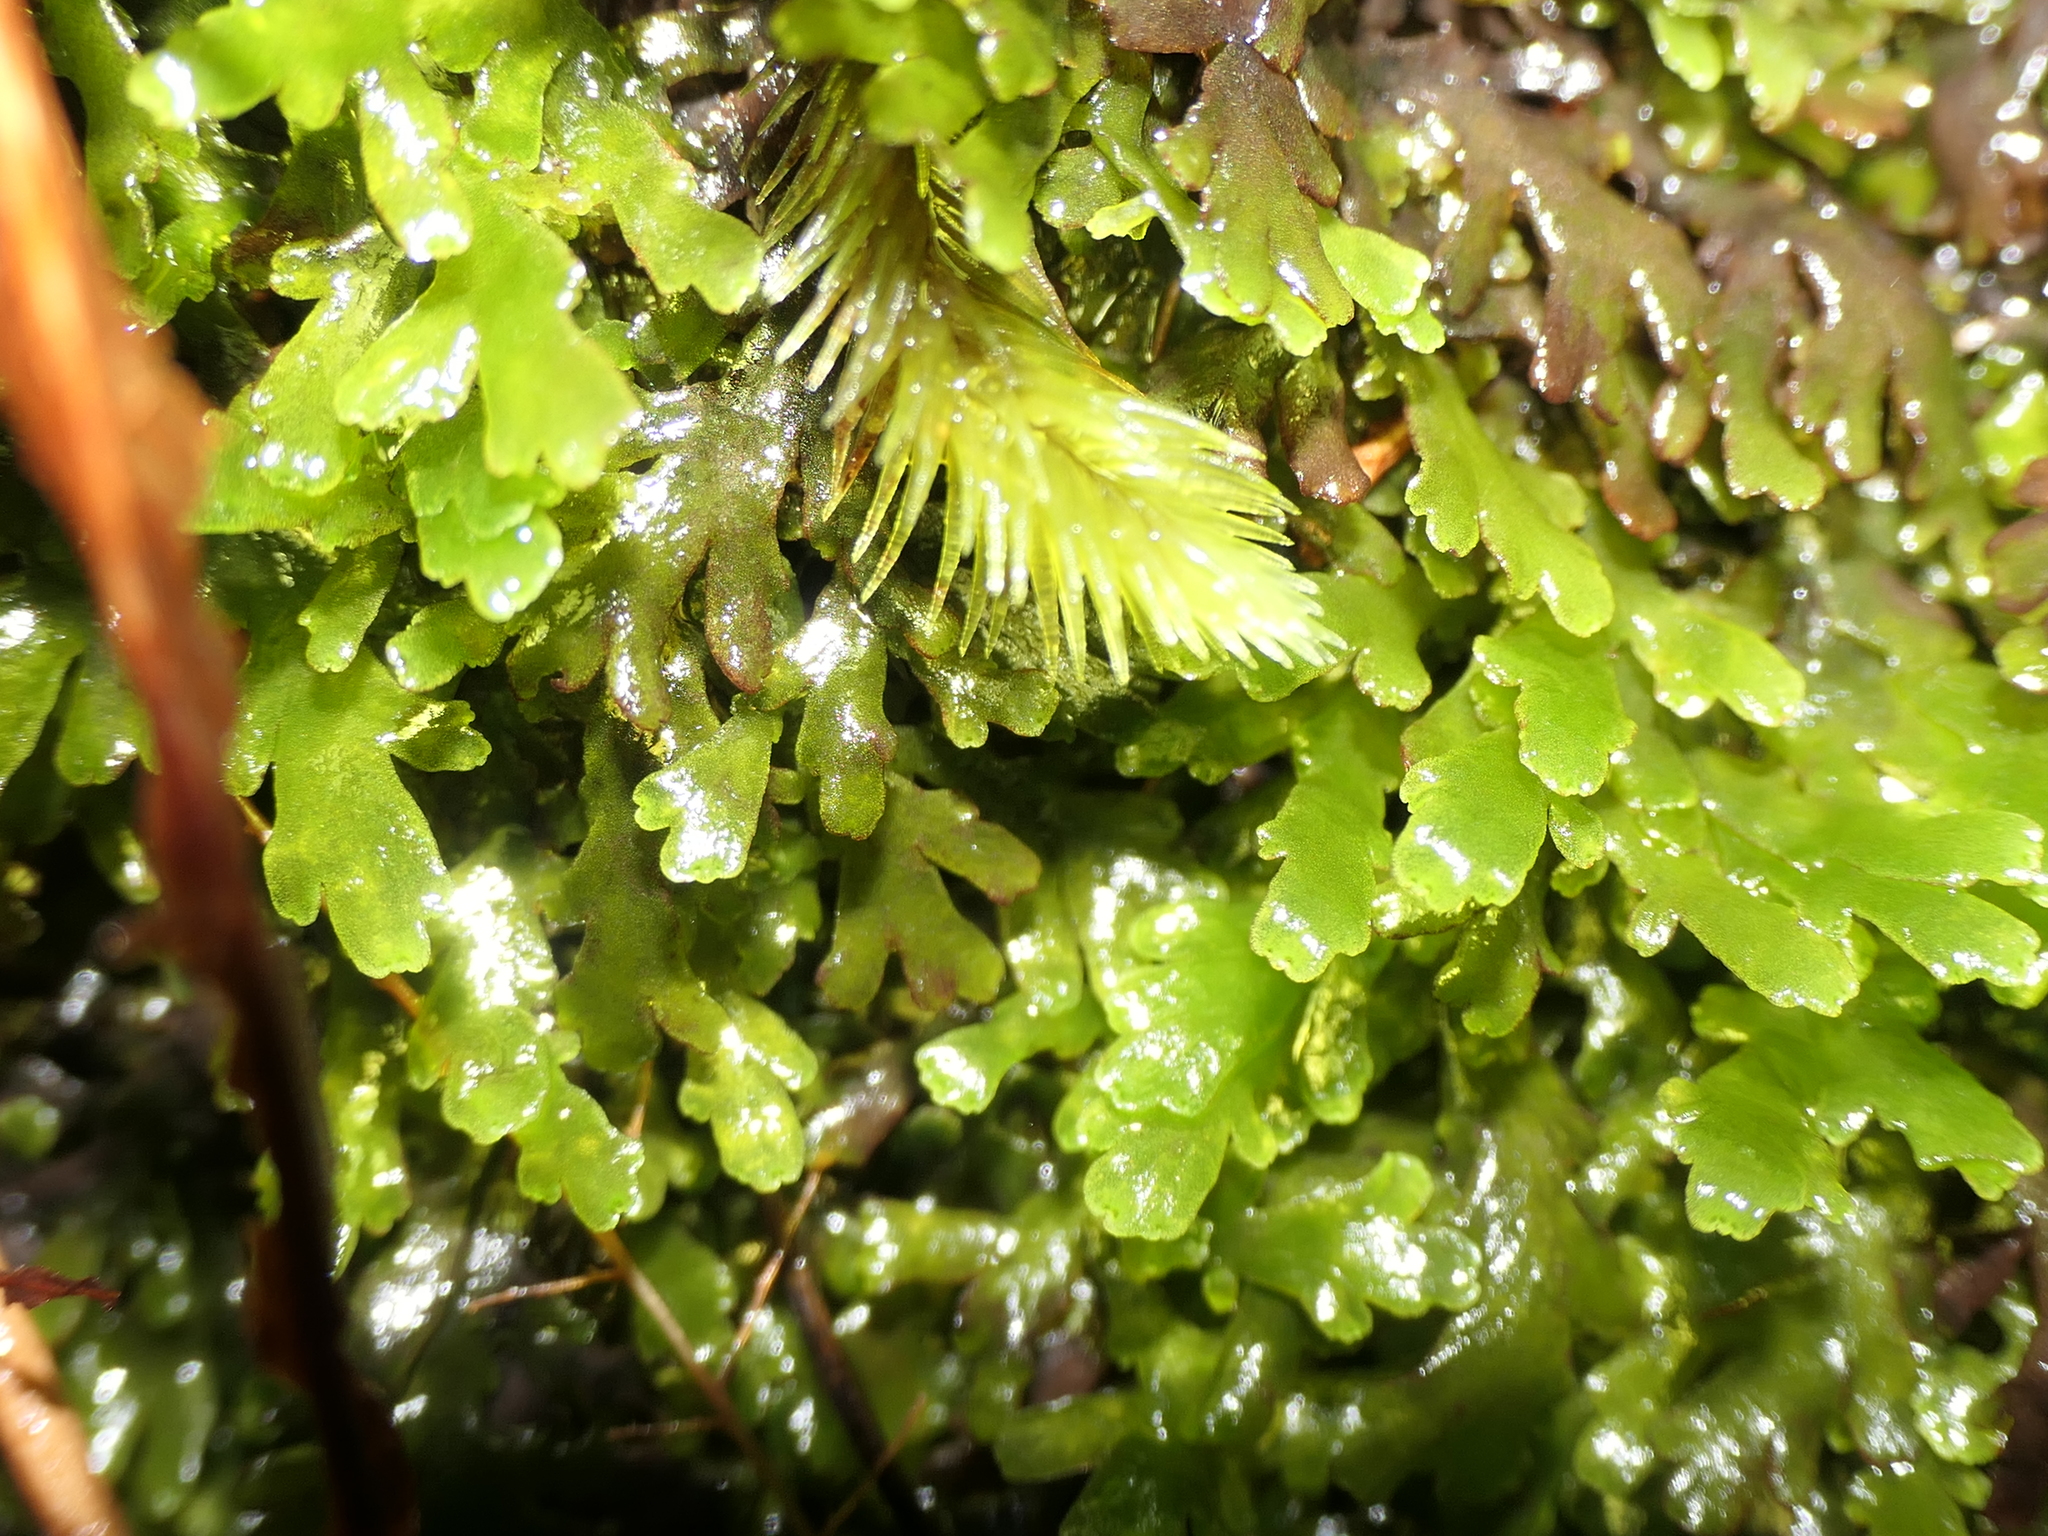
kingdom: Plantae
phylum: Marchantiophyta
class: Jungermanniopsida
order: Metzgeriales
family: Aneuraceae
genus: Riccardia
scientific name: Riccardia colensoi
